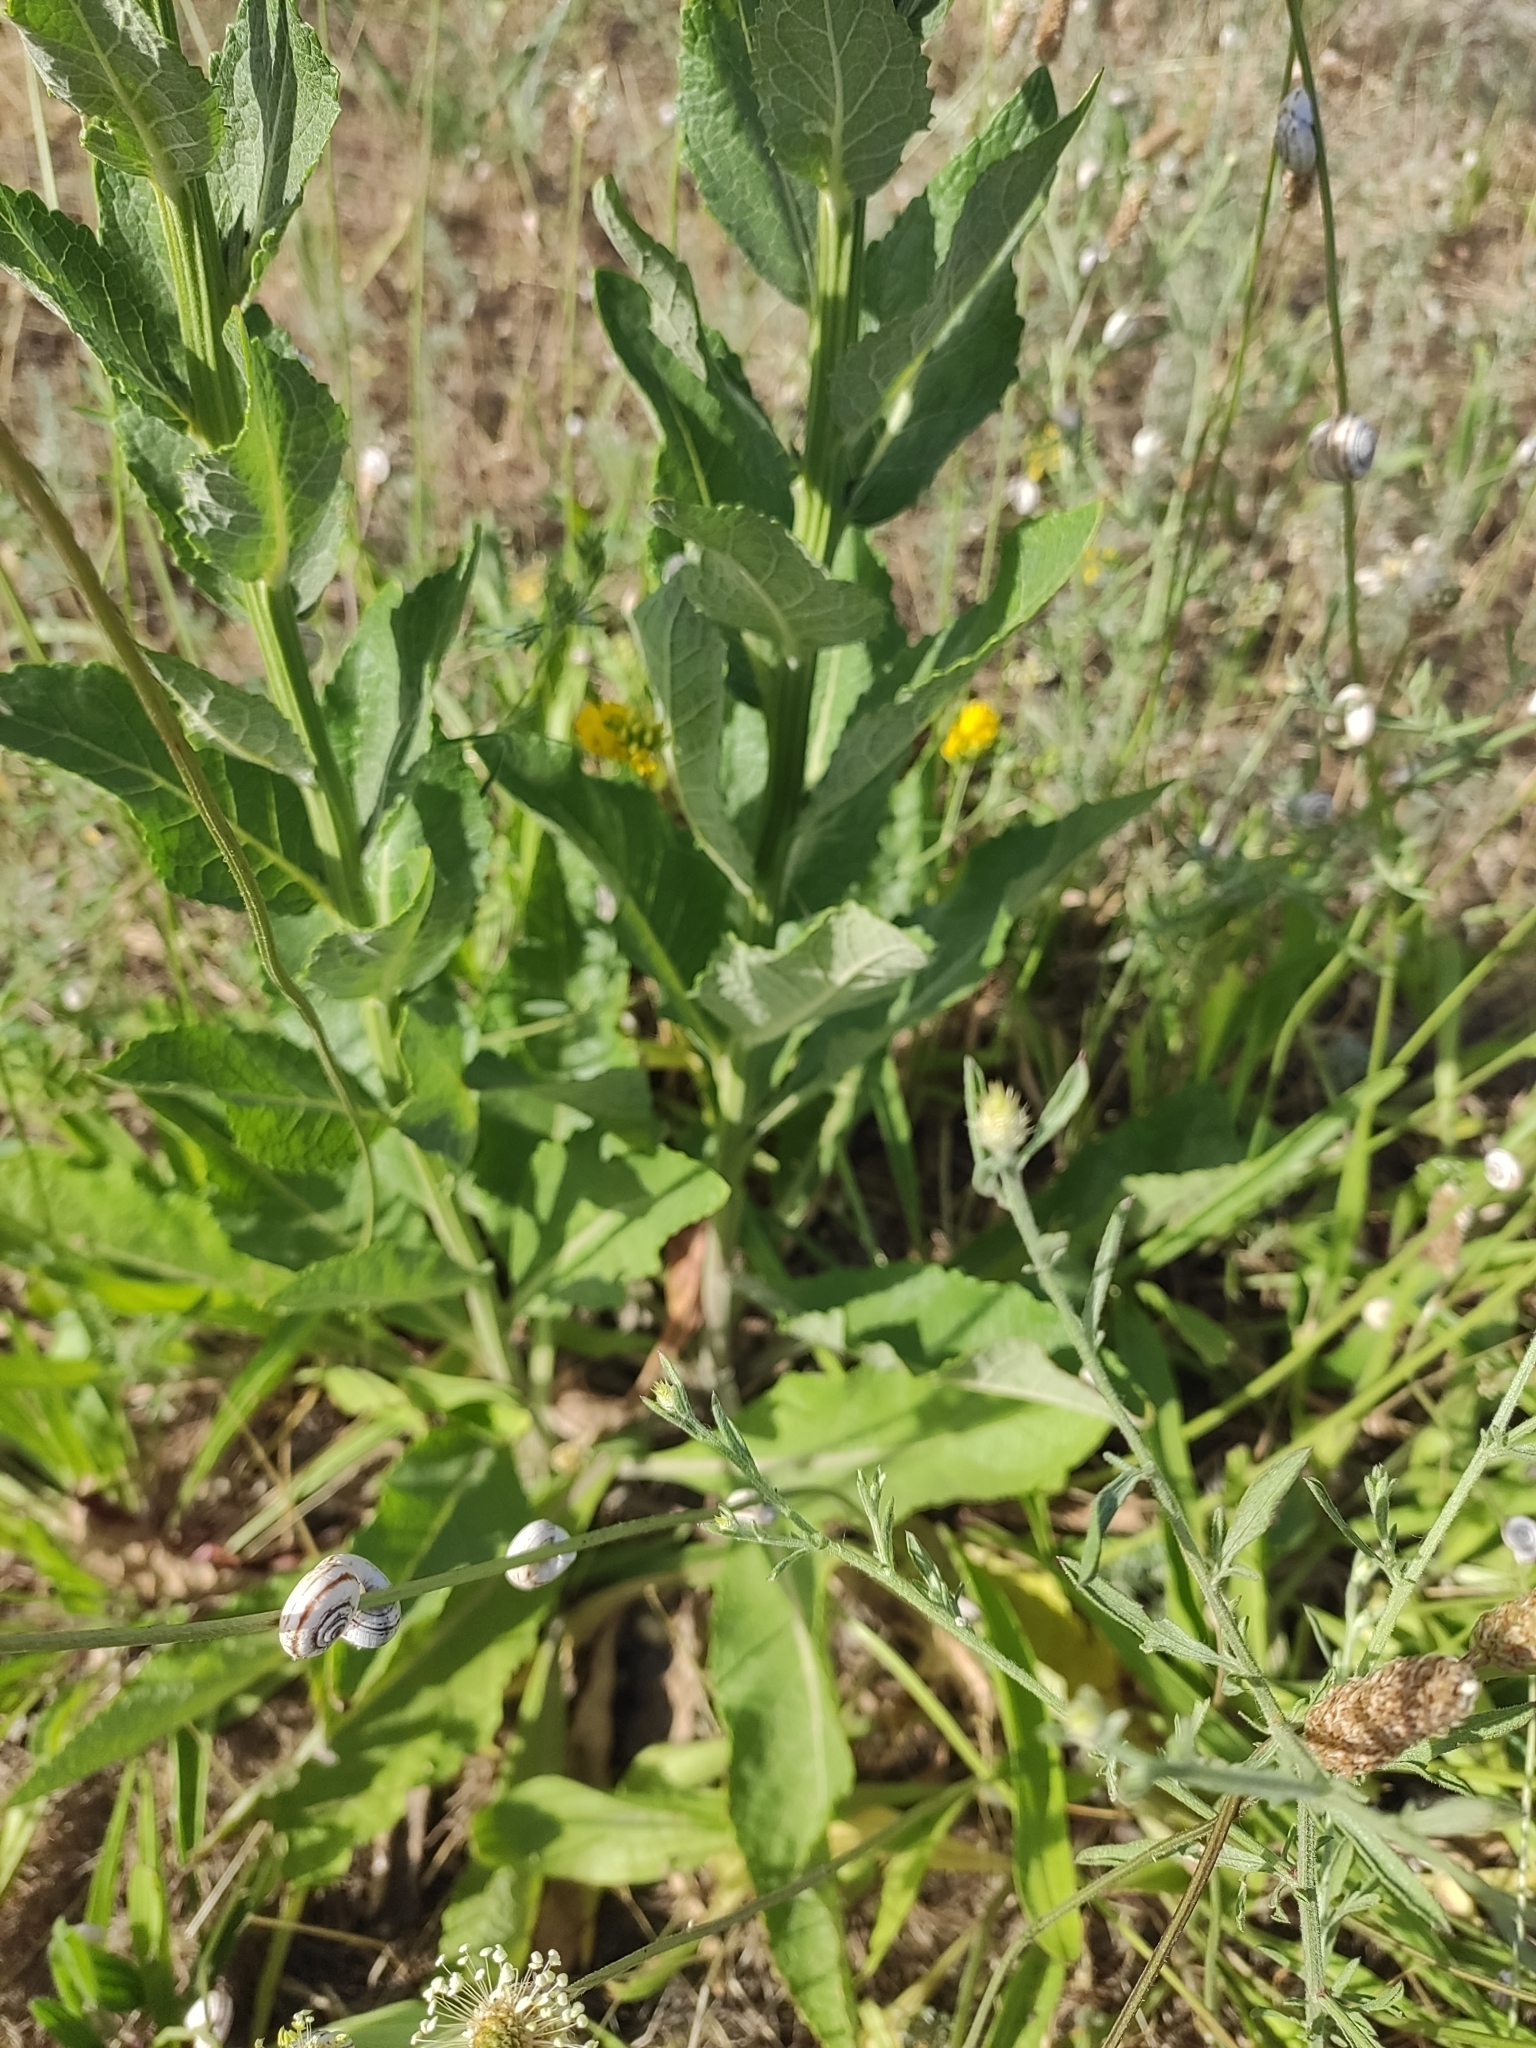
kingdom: Plantae
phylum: Tracheophyta
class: Magnoliopsida
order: Lamiales
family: Scrophulariaceae
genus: Verbascum
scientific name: Verbascum lychnitis
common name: White mullein
